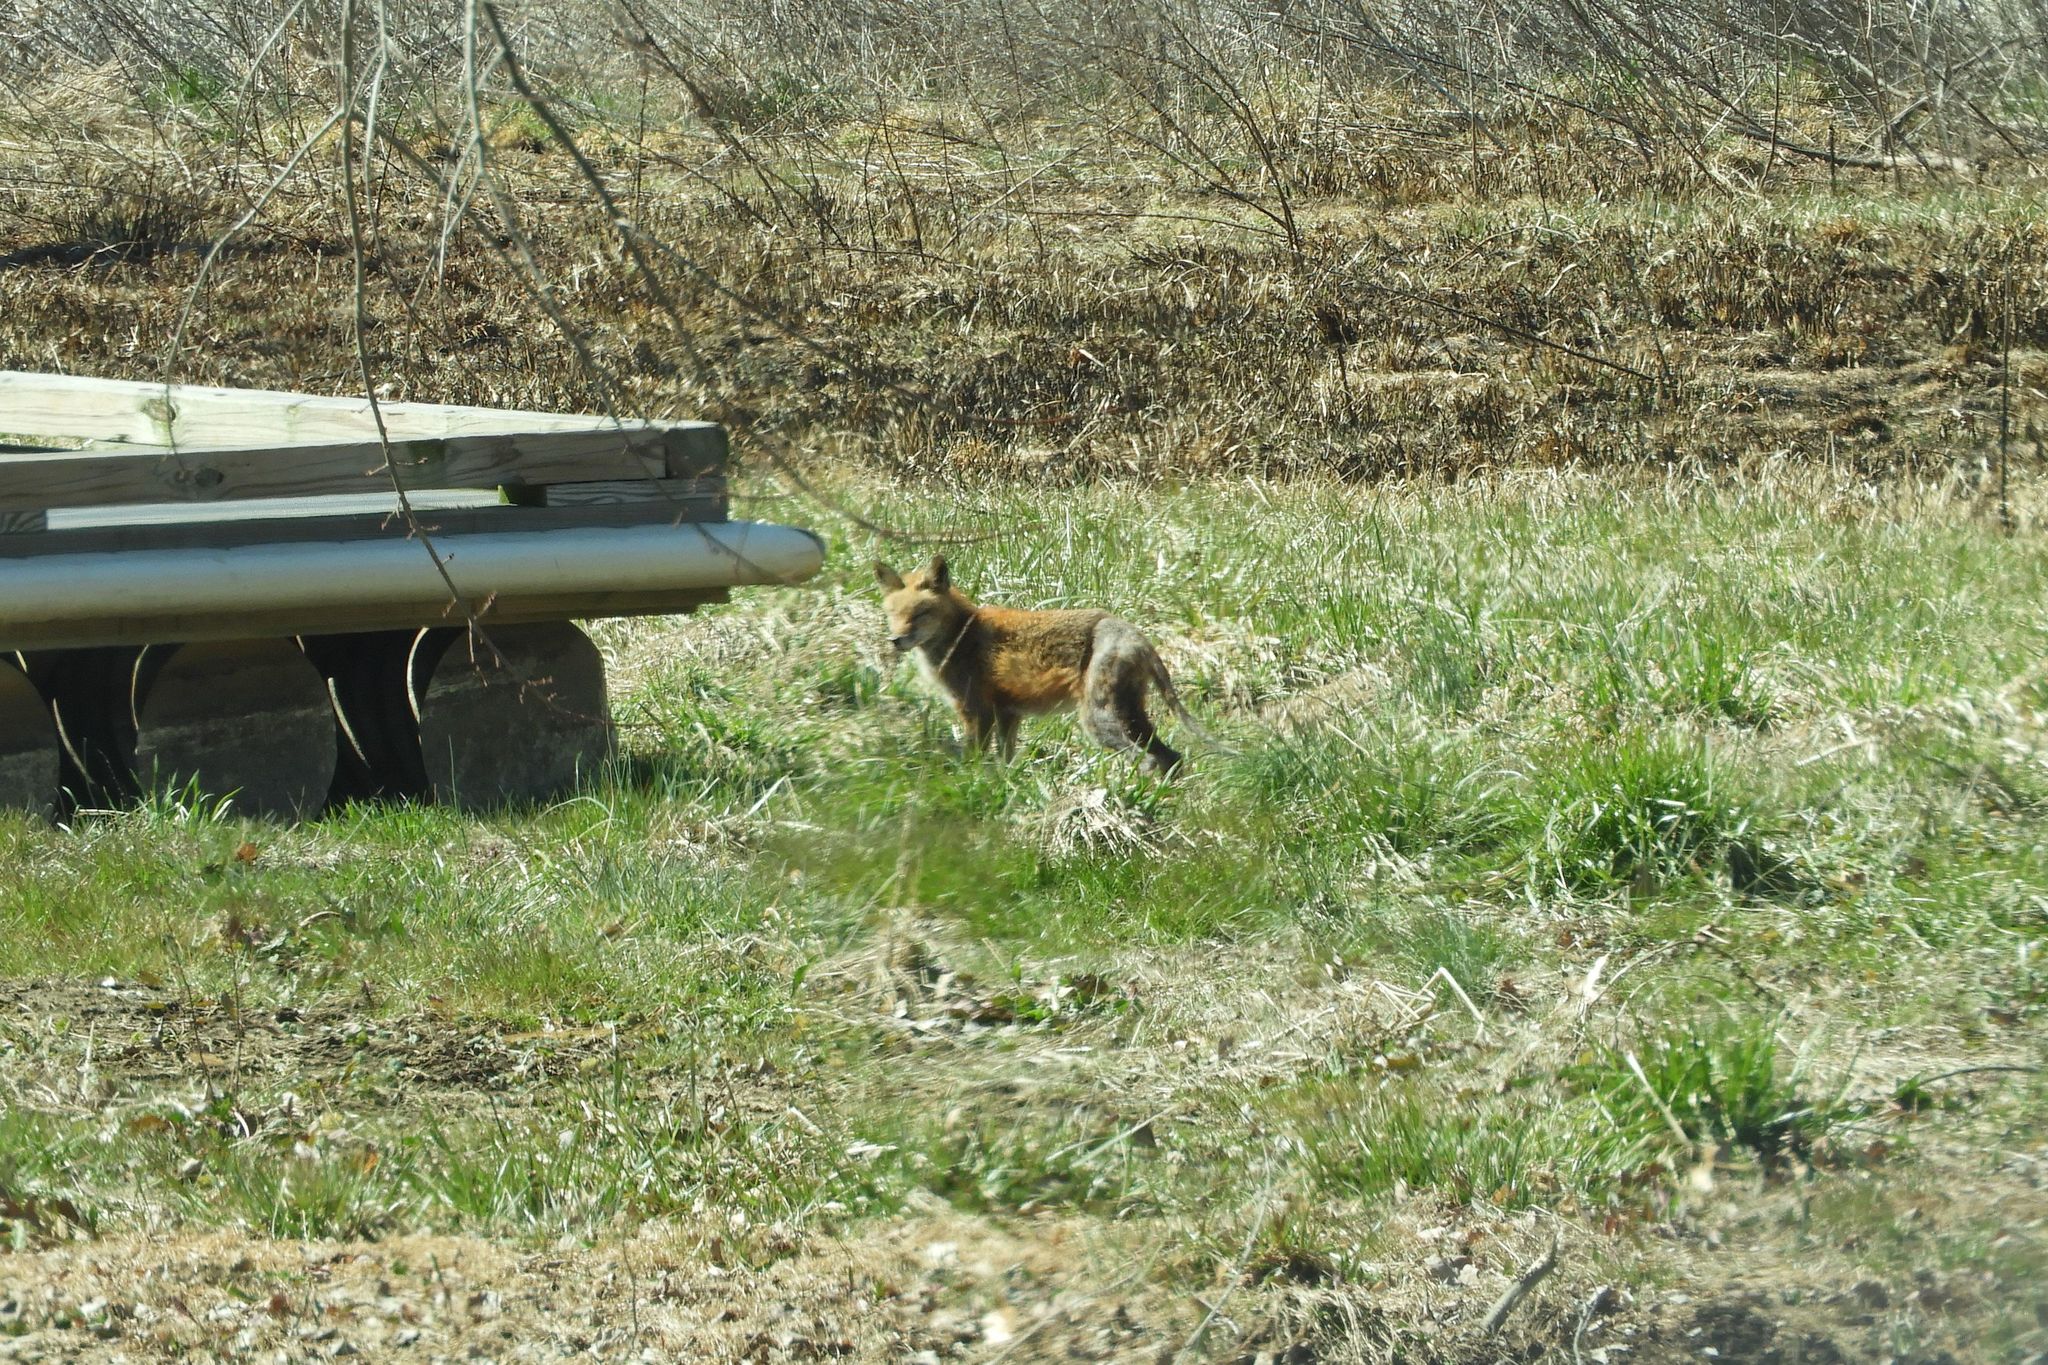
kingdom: Animalia
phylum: Chordata
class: Mammalia
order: Carnivora
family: Canidae
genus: Vulpes
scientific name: Vulpes vulpes
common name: Red fox
